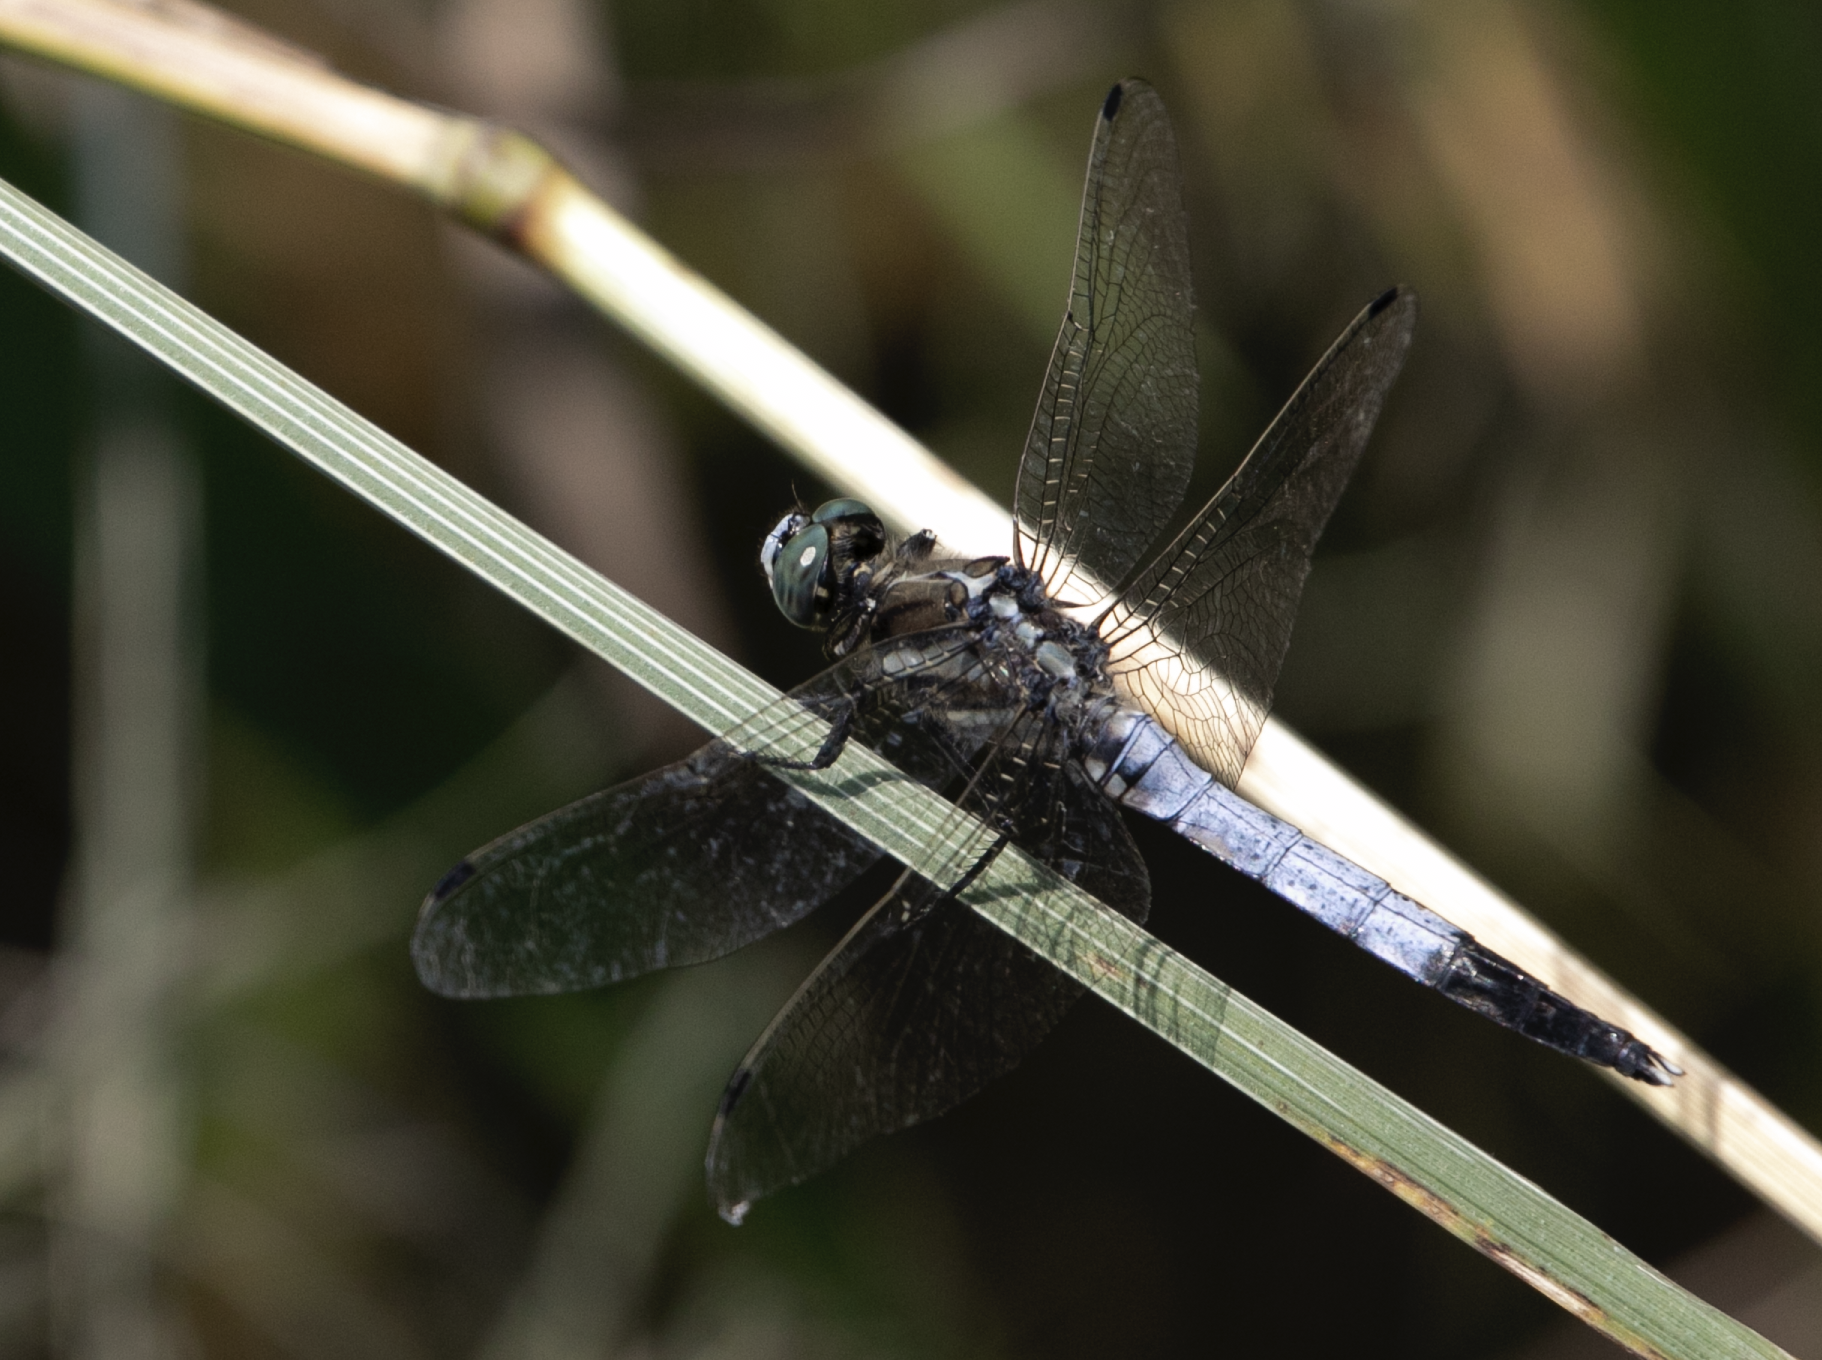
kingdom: Animalia
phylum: Arthropoda
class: Insecta
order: Odonata
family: Libellulidae
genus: Orthetrum
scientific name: Orthetrum albistylum
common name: White-tailed skimmer
